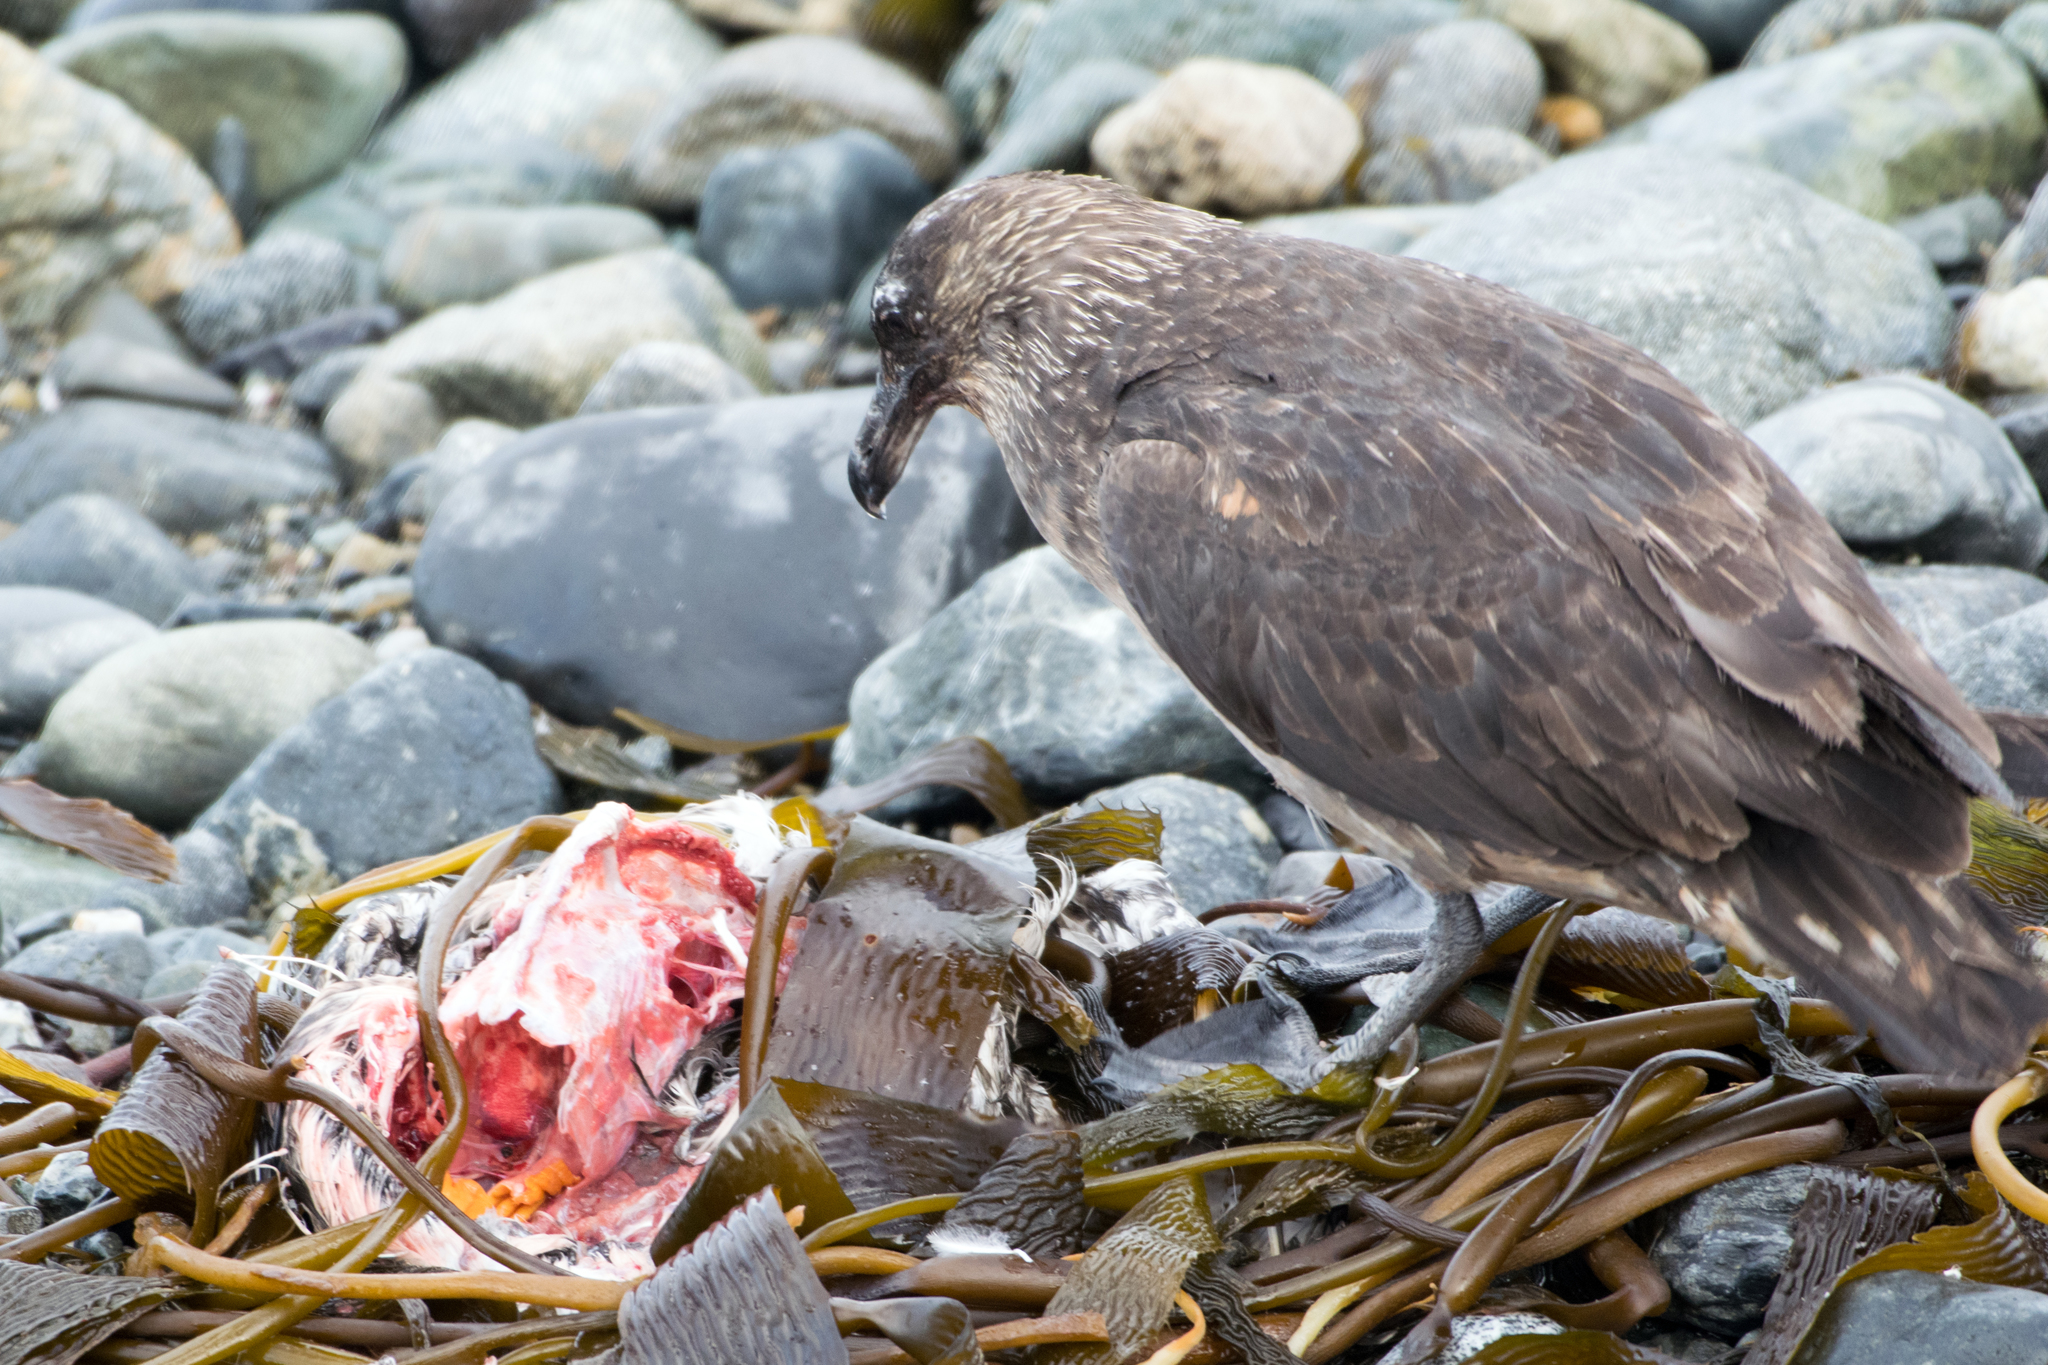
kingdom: Animalia
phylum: Chordata
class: Aves
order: Charadriiformes
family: Stercorariidae
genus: Stercorarius
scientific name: Stercorarius chilensis
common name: Chilean skua
